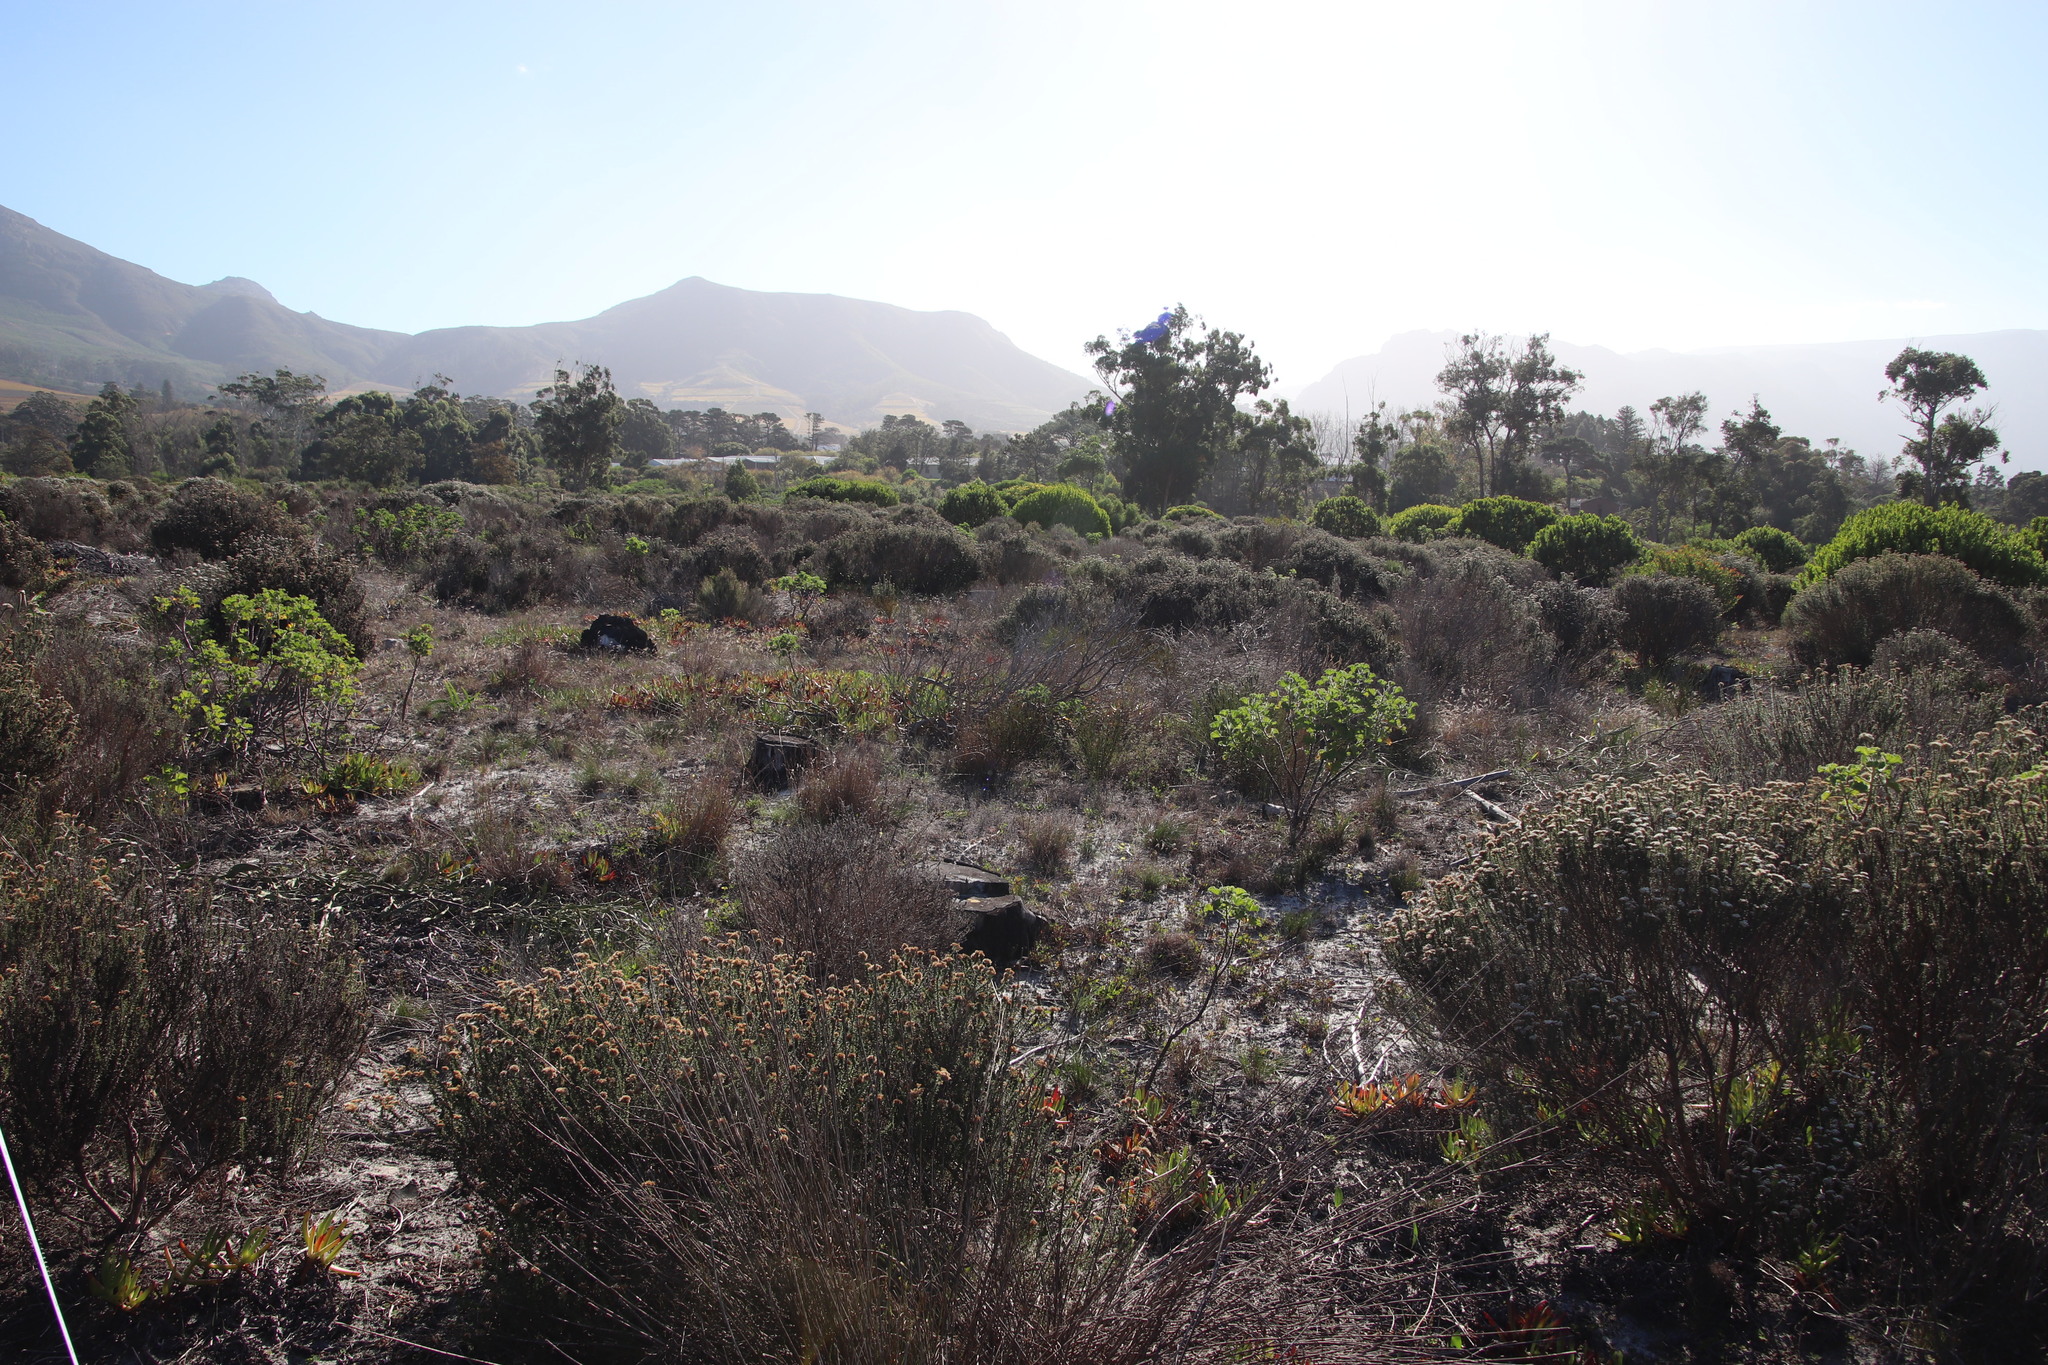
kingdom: Plantae
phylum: Tracheophyta
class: Magnoliopsida
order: Caryophyllales
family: Aizoaceae
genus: Carpobrotus
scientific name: Carpobrotus edulis
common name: Hottentot-fig
